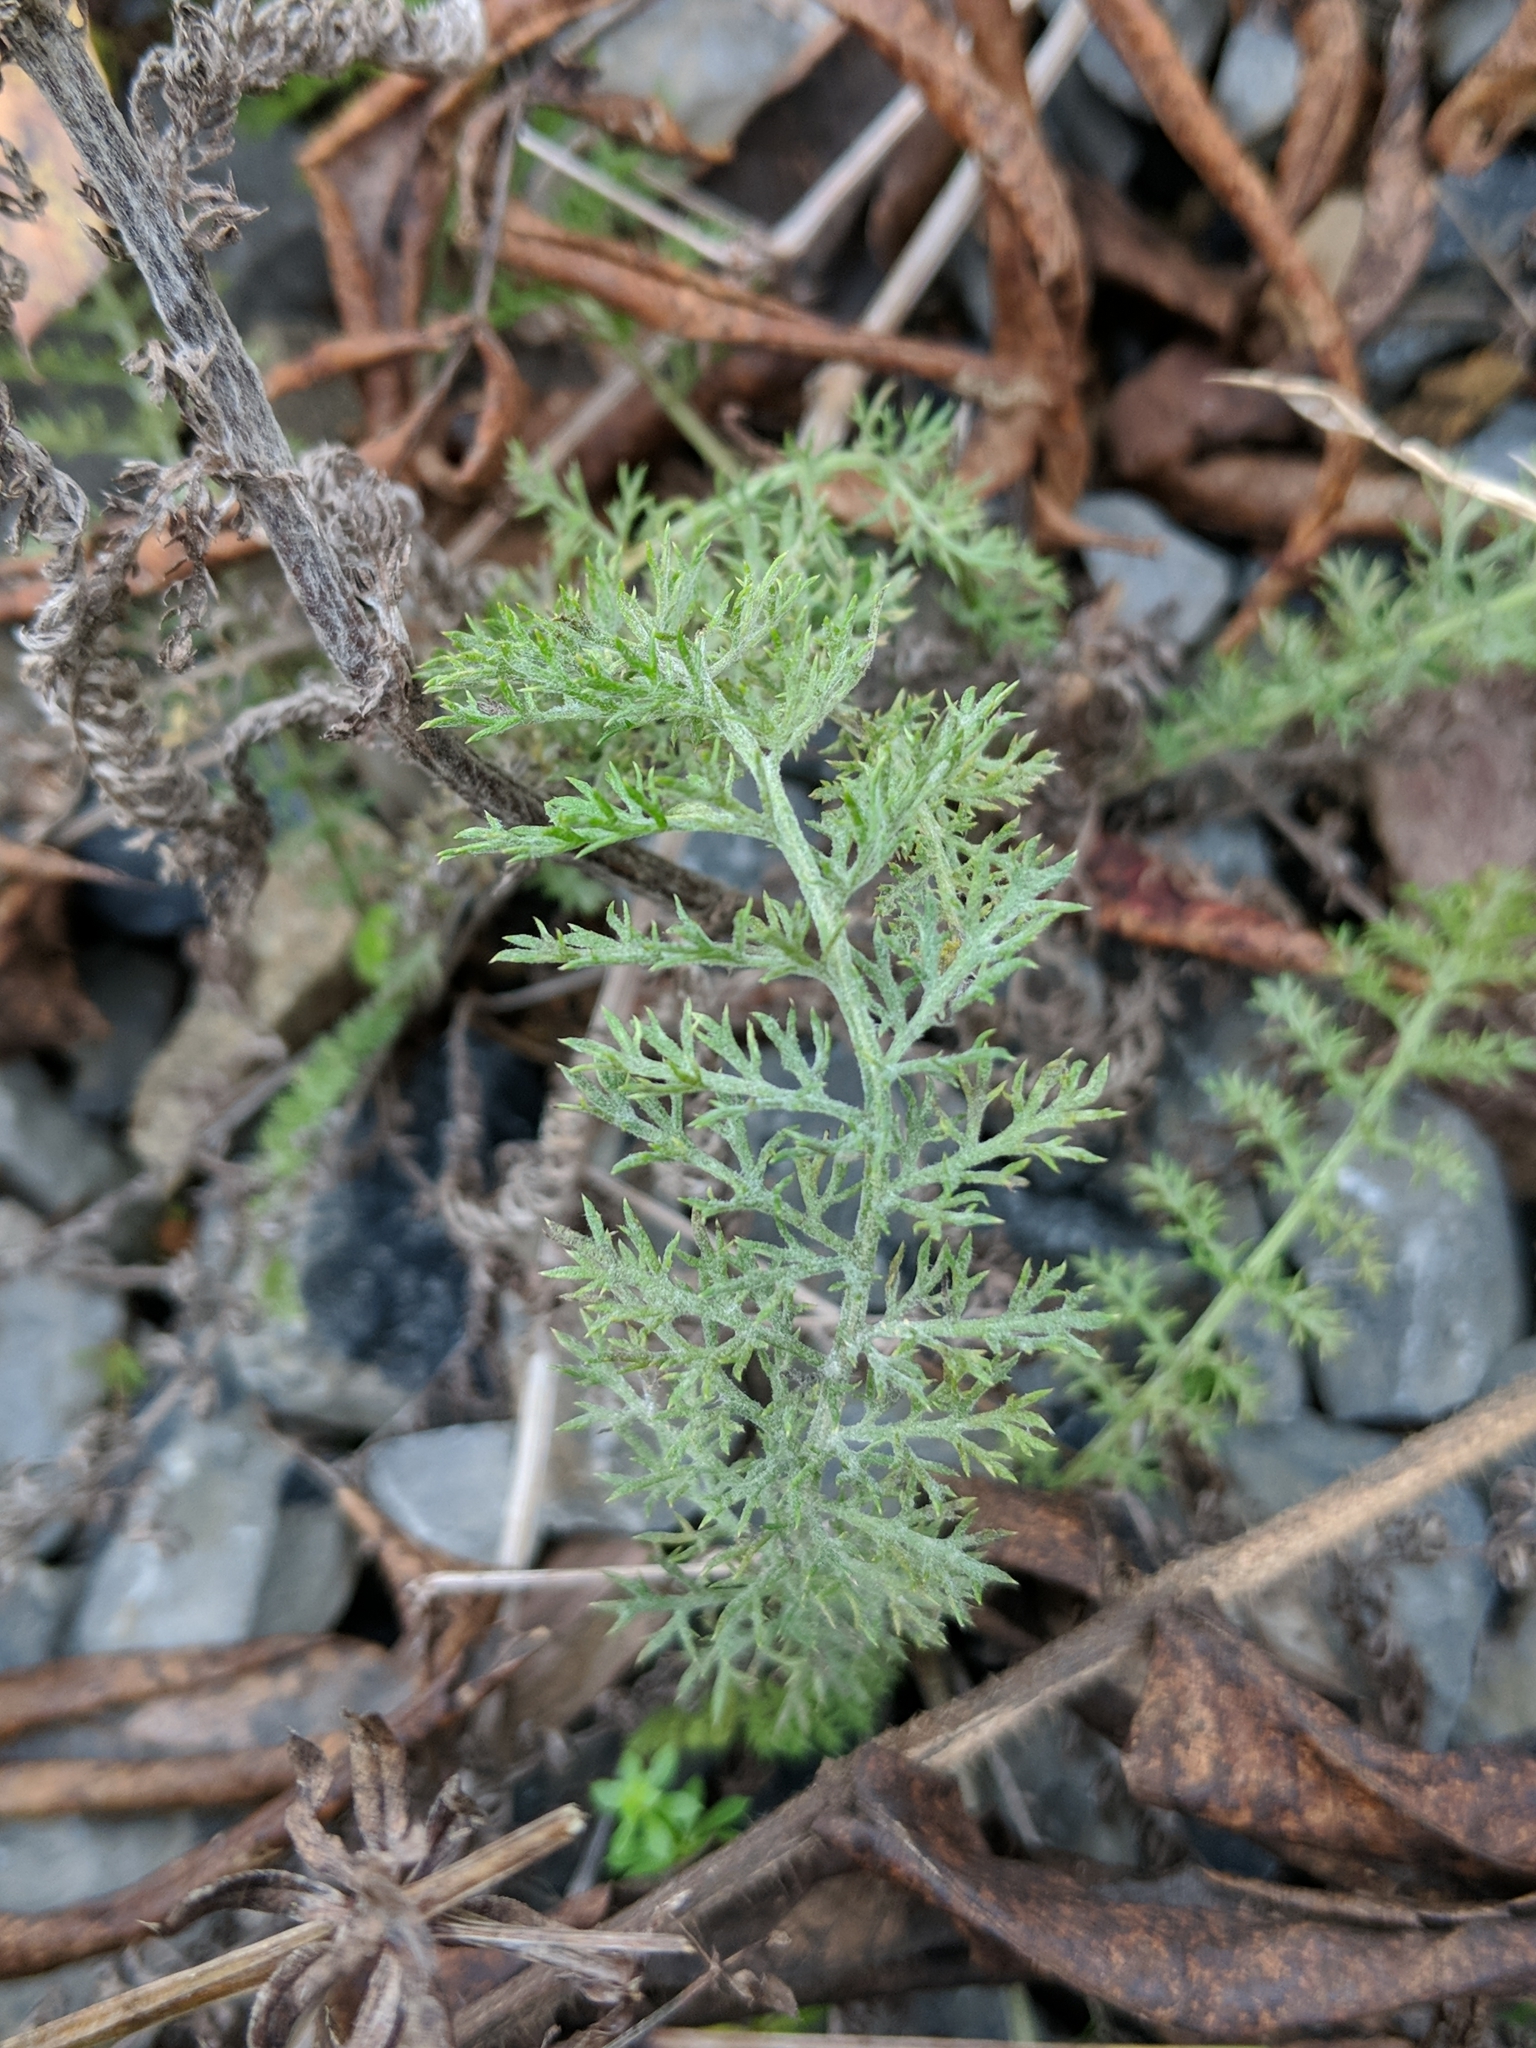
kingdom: Plantae
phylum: Tracheophyta
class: Magnoliopsida
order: Asterales
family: Asteraceae
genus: Achillea
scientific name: Achillea millefolium
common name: Yarrow
